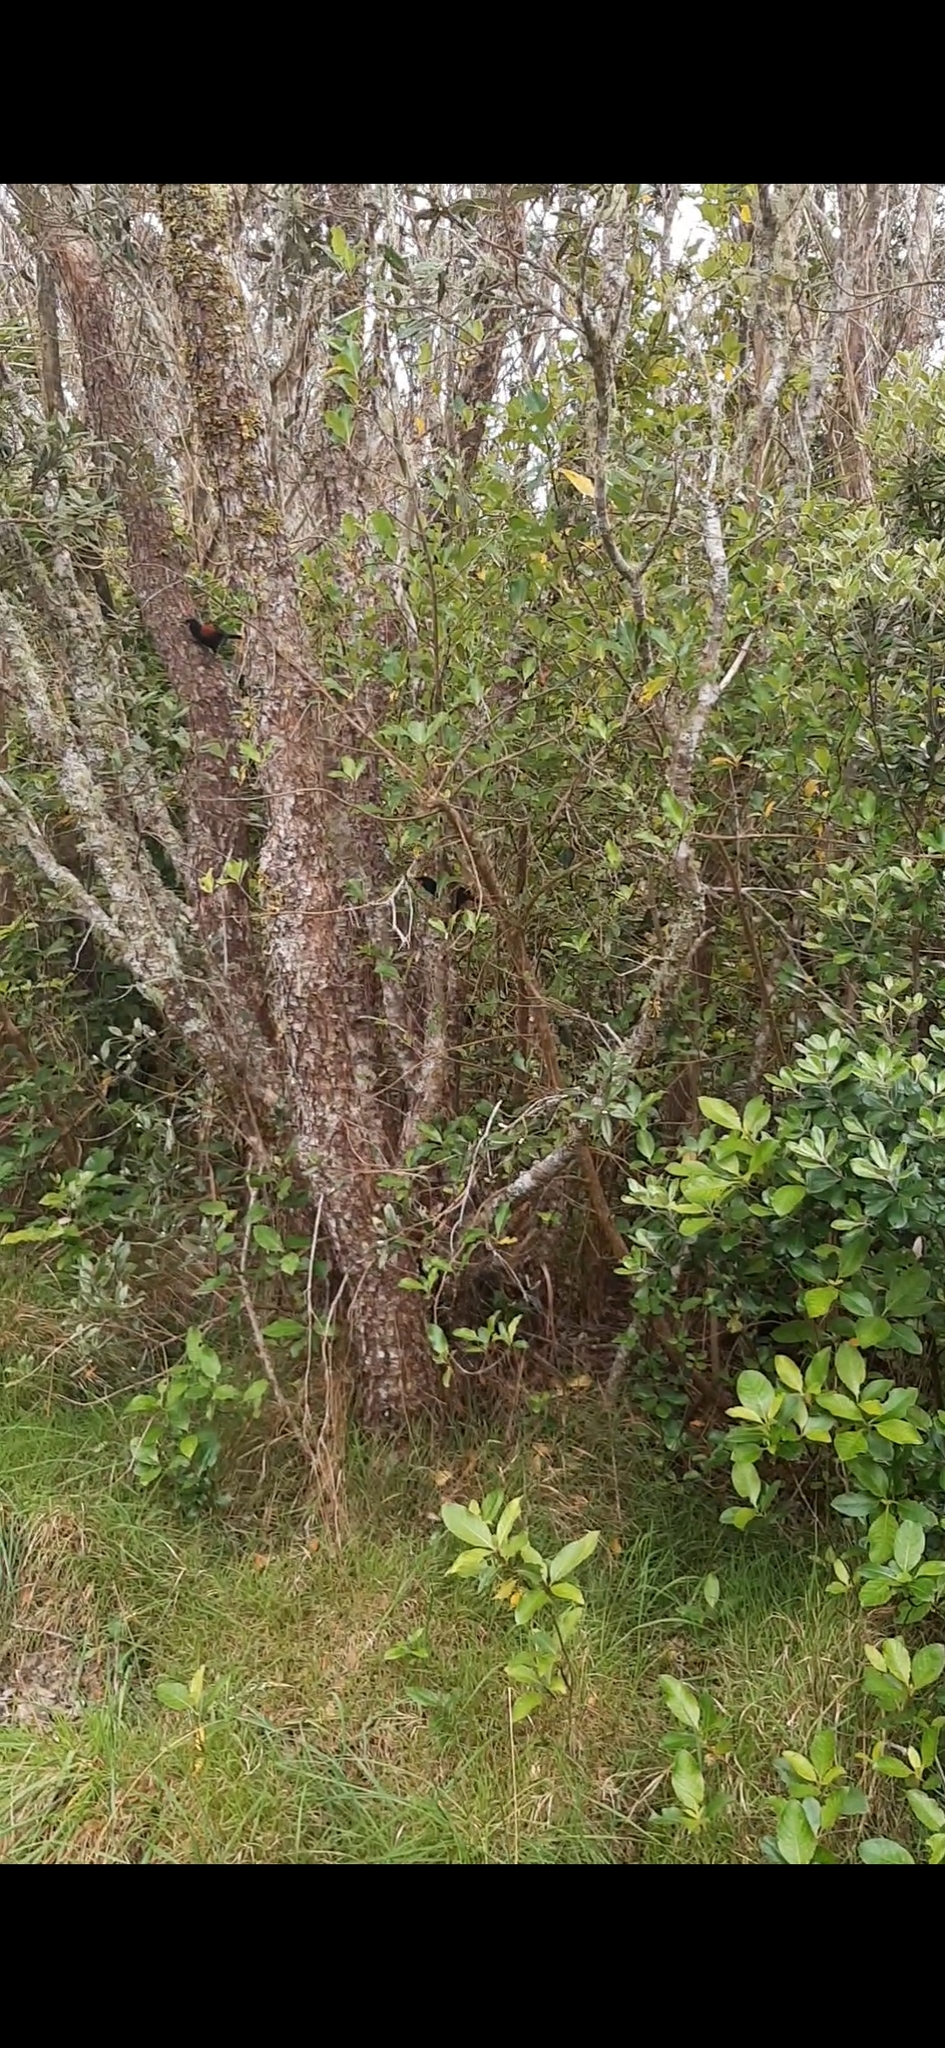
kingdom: Animalia
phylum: Chordata
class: Aves
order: Passeriformes
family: Callaeatidae
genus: Philesturnus
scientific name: Philesturnus carunculatus
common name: South island saddleback
